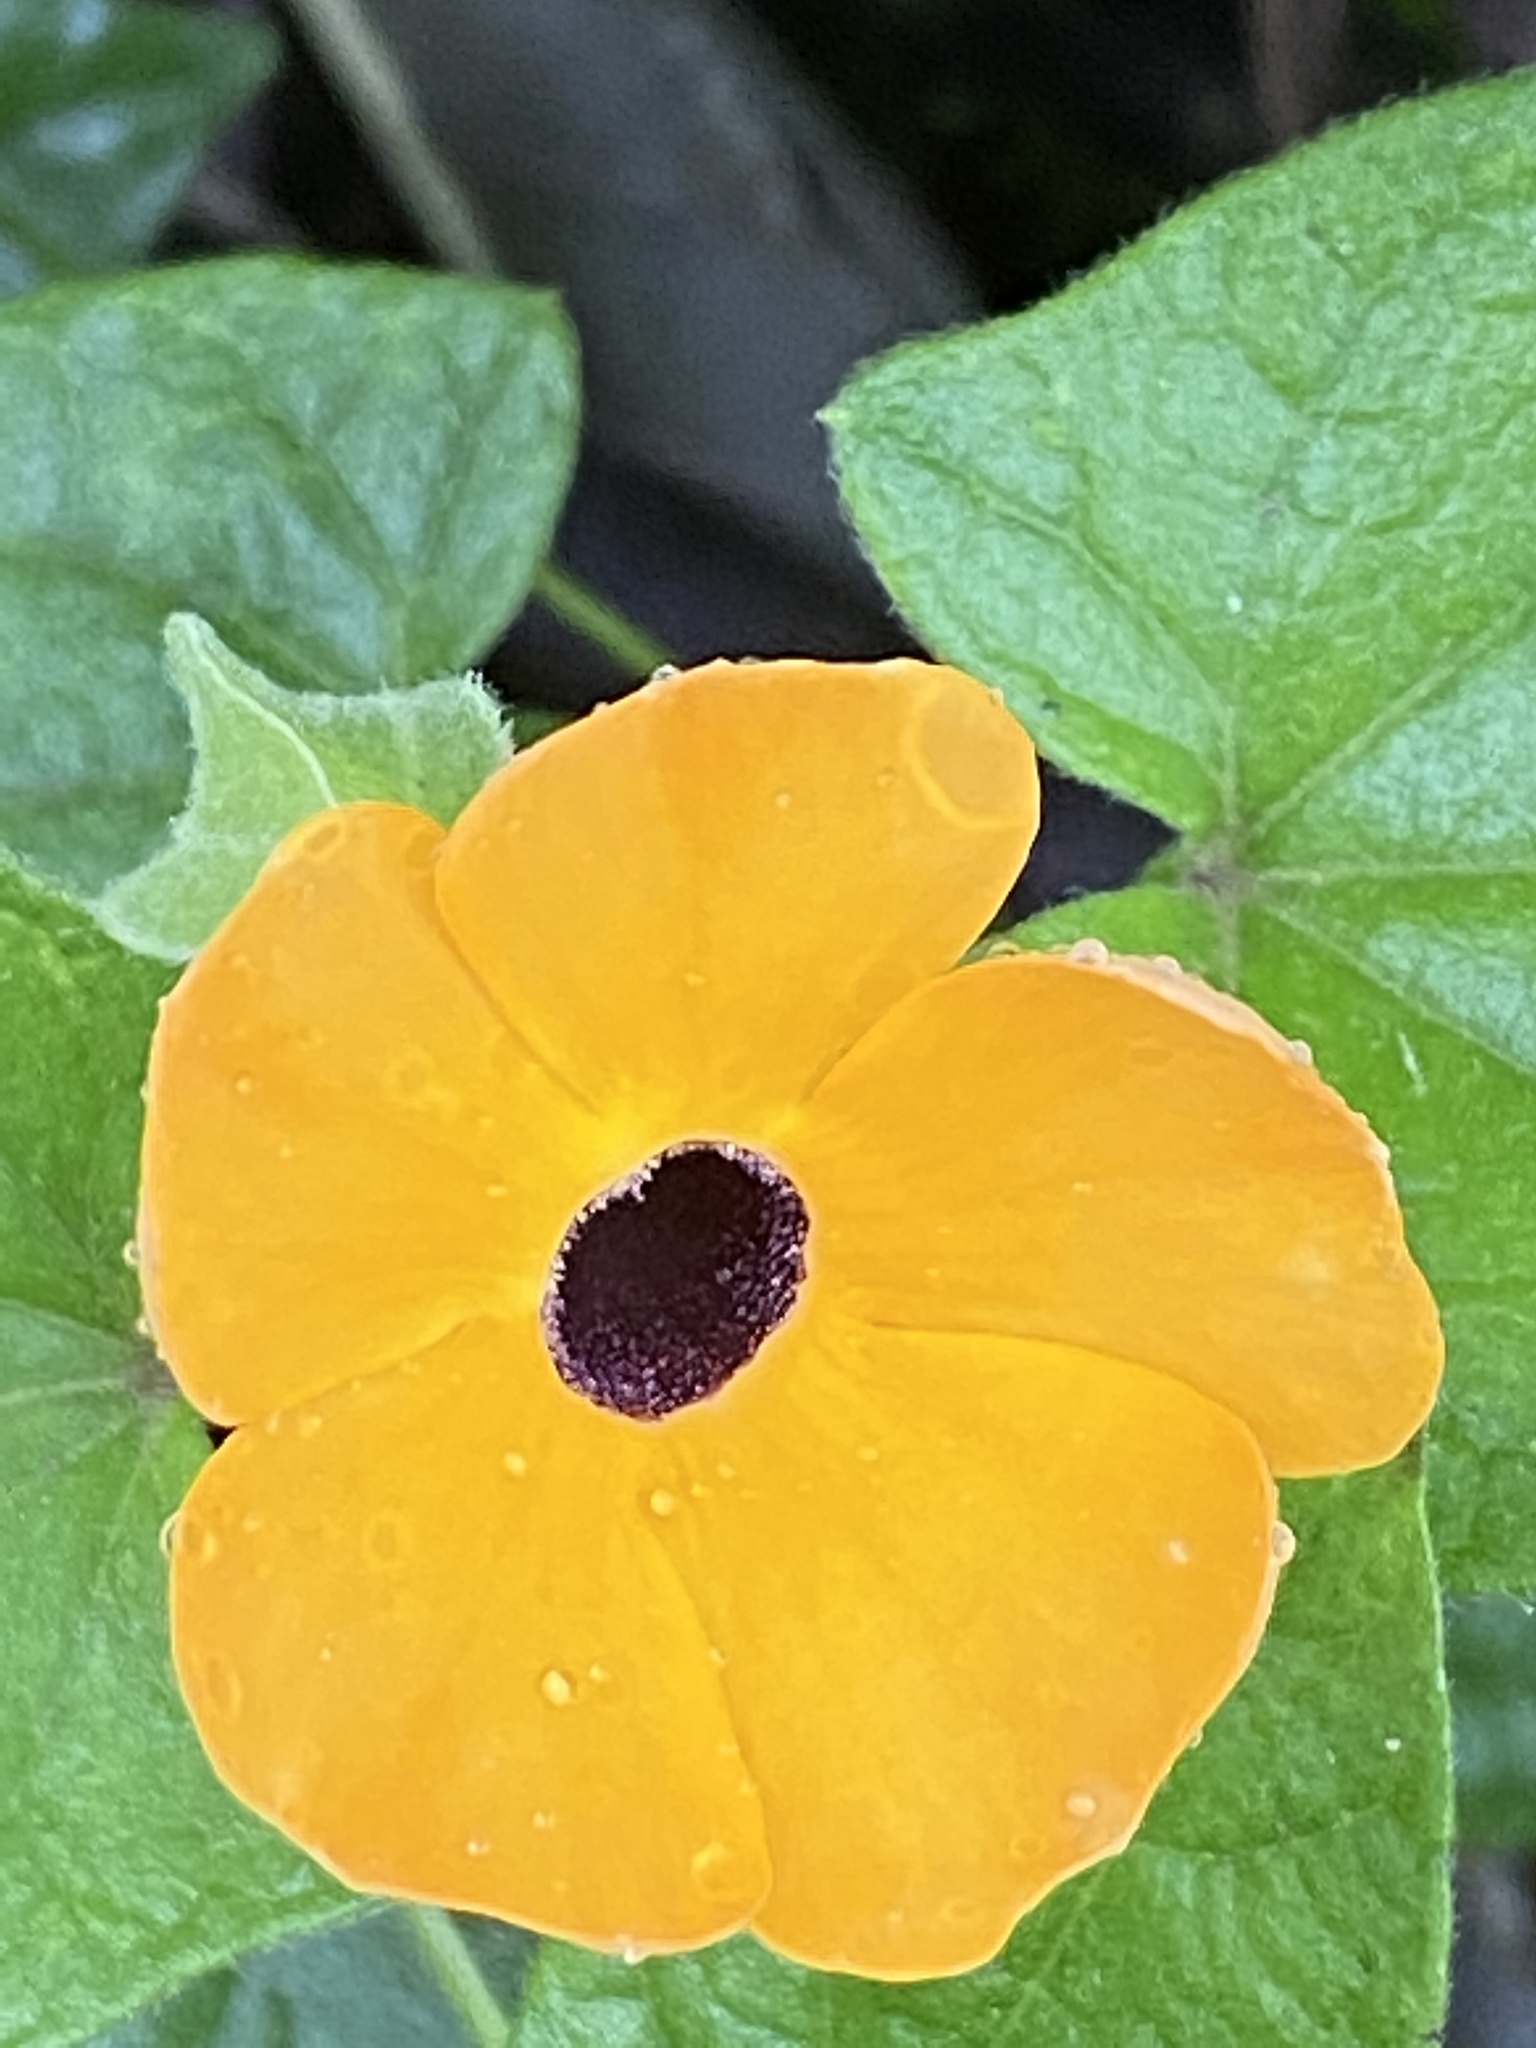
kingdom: Plantae
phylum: Tracheophyta
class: Magnoliopsida
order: Lamiales
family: Acanthaceae
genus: Thunbergia
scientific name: Thunbergia alata
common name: Blackeyed susan vine
